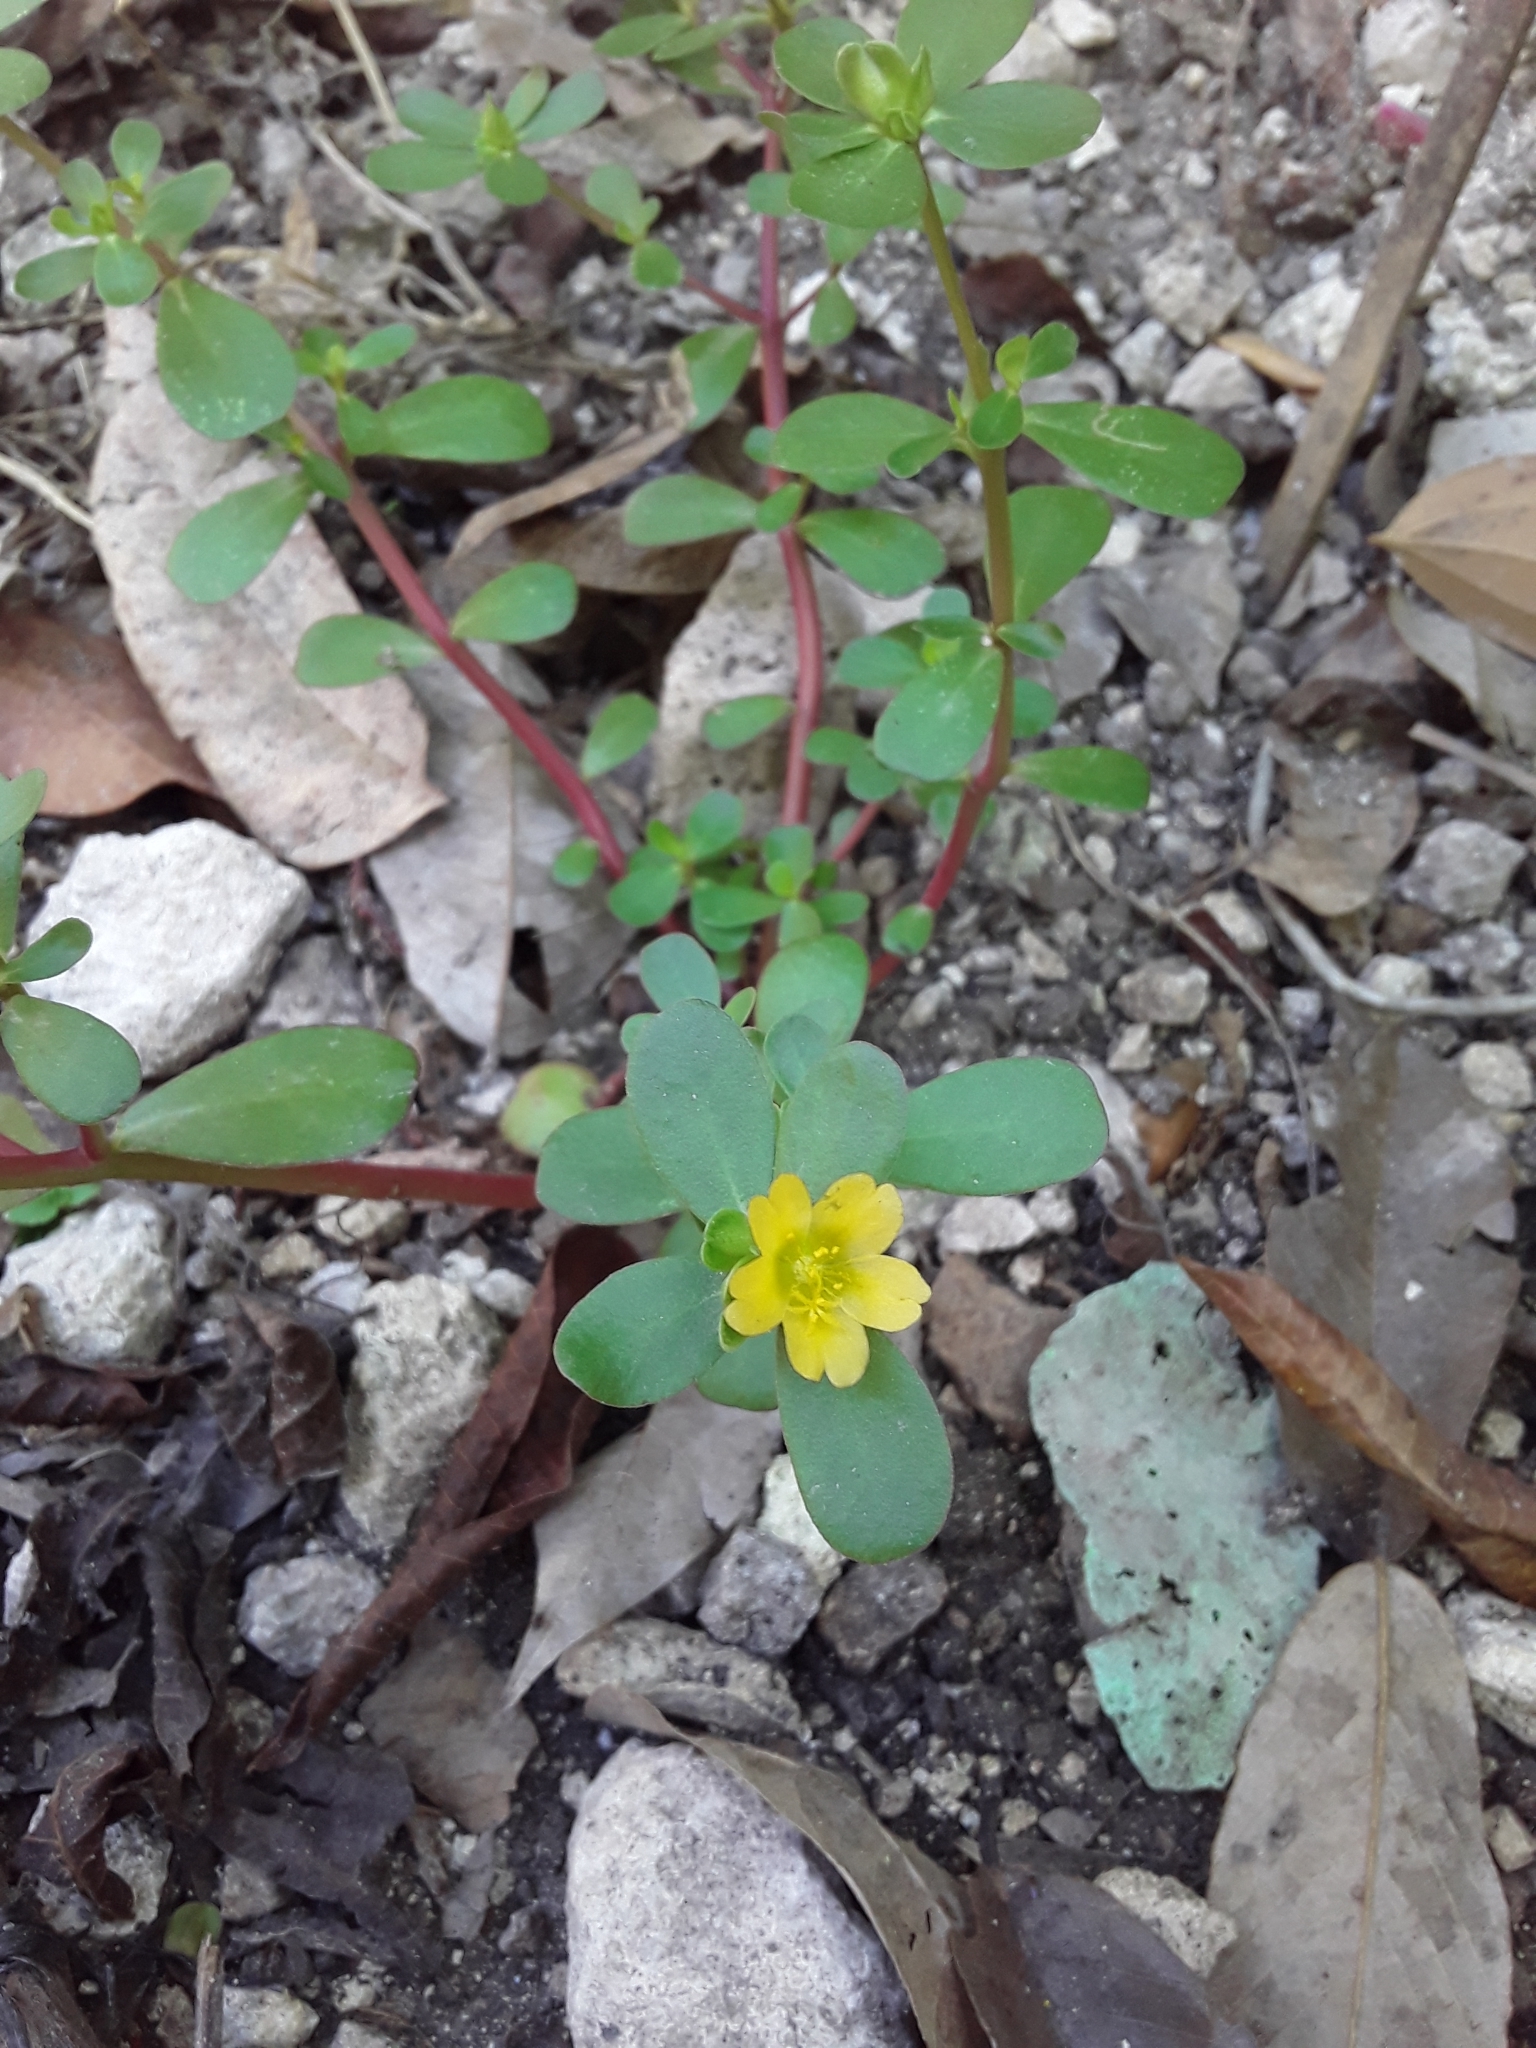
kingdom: Plantae
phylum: Tracheophyta
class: Magnoliopsida
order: Caryophyllales
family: Portulacaceae
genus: Portulaca
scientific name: Portulaca oleracea
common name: Common purslane
